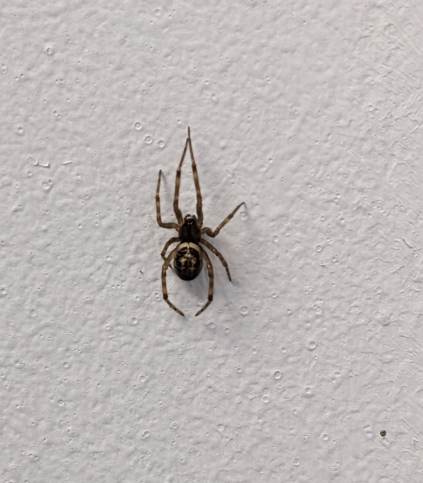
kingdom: Animalia
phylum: Arthropoda
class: Arachnida
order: Araneae
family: Theridiidae
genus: Steatoda
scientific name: Steatoda nobilis
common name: Cobweb weaver
